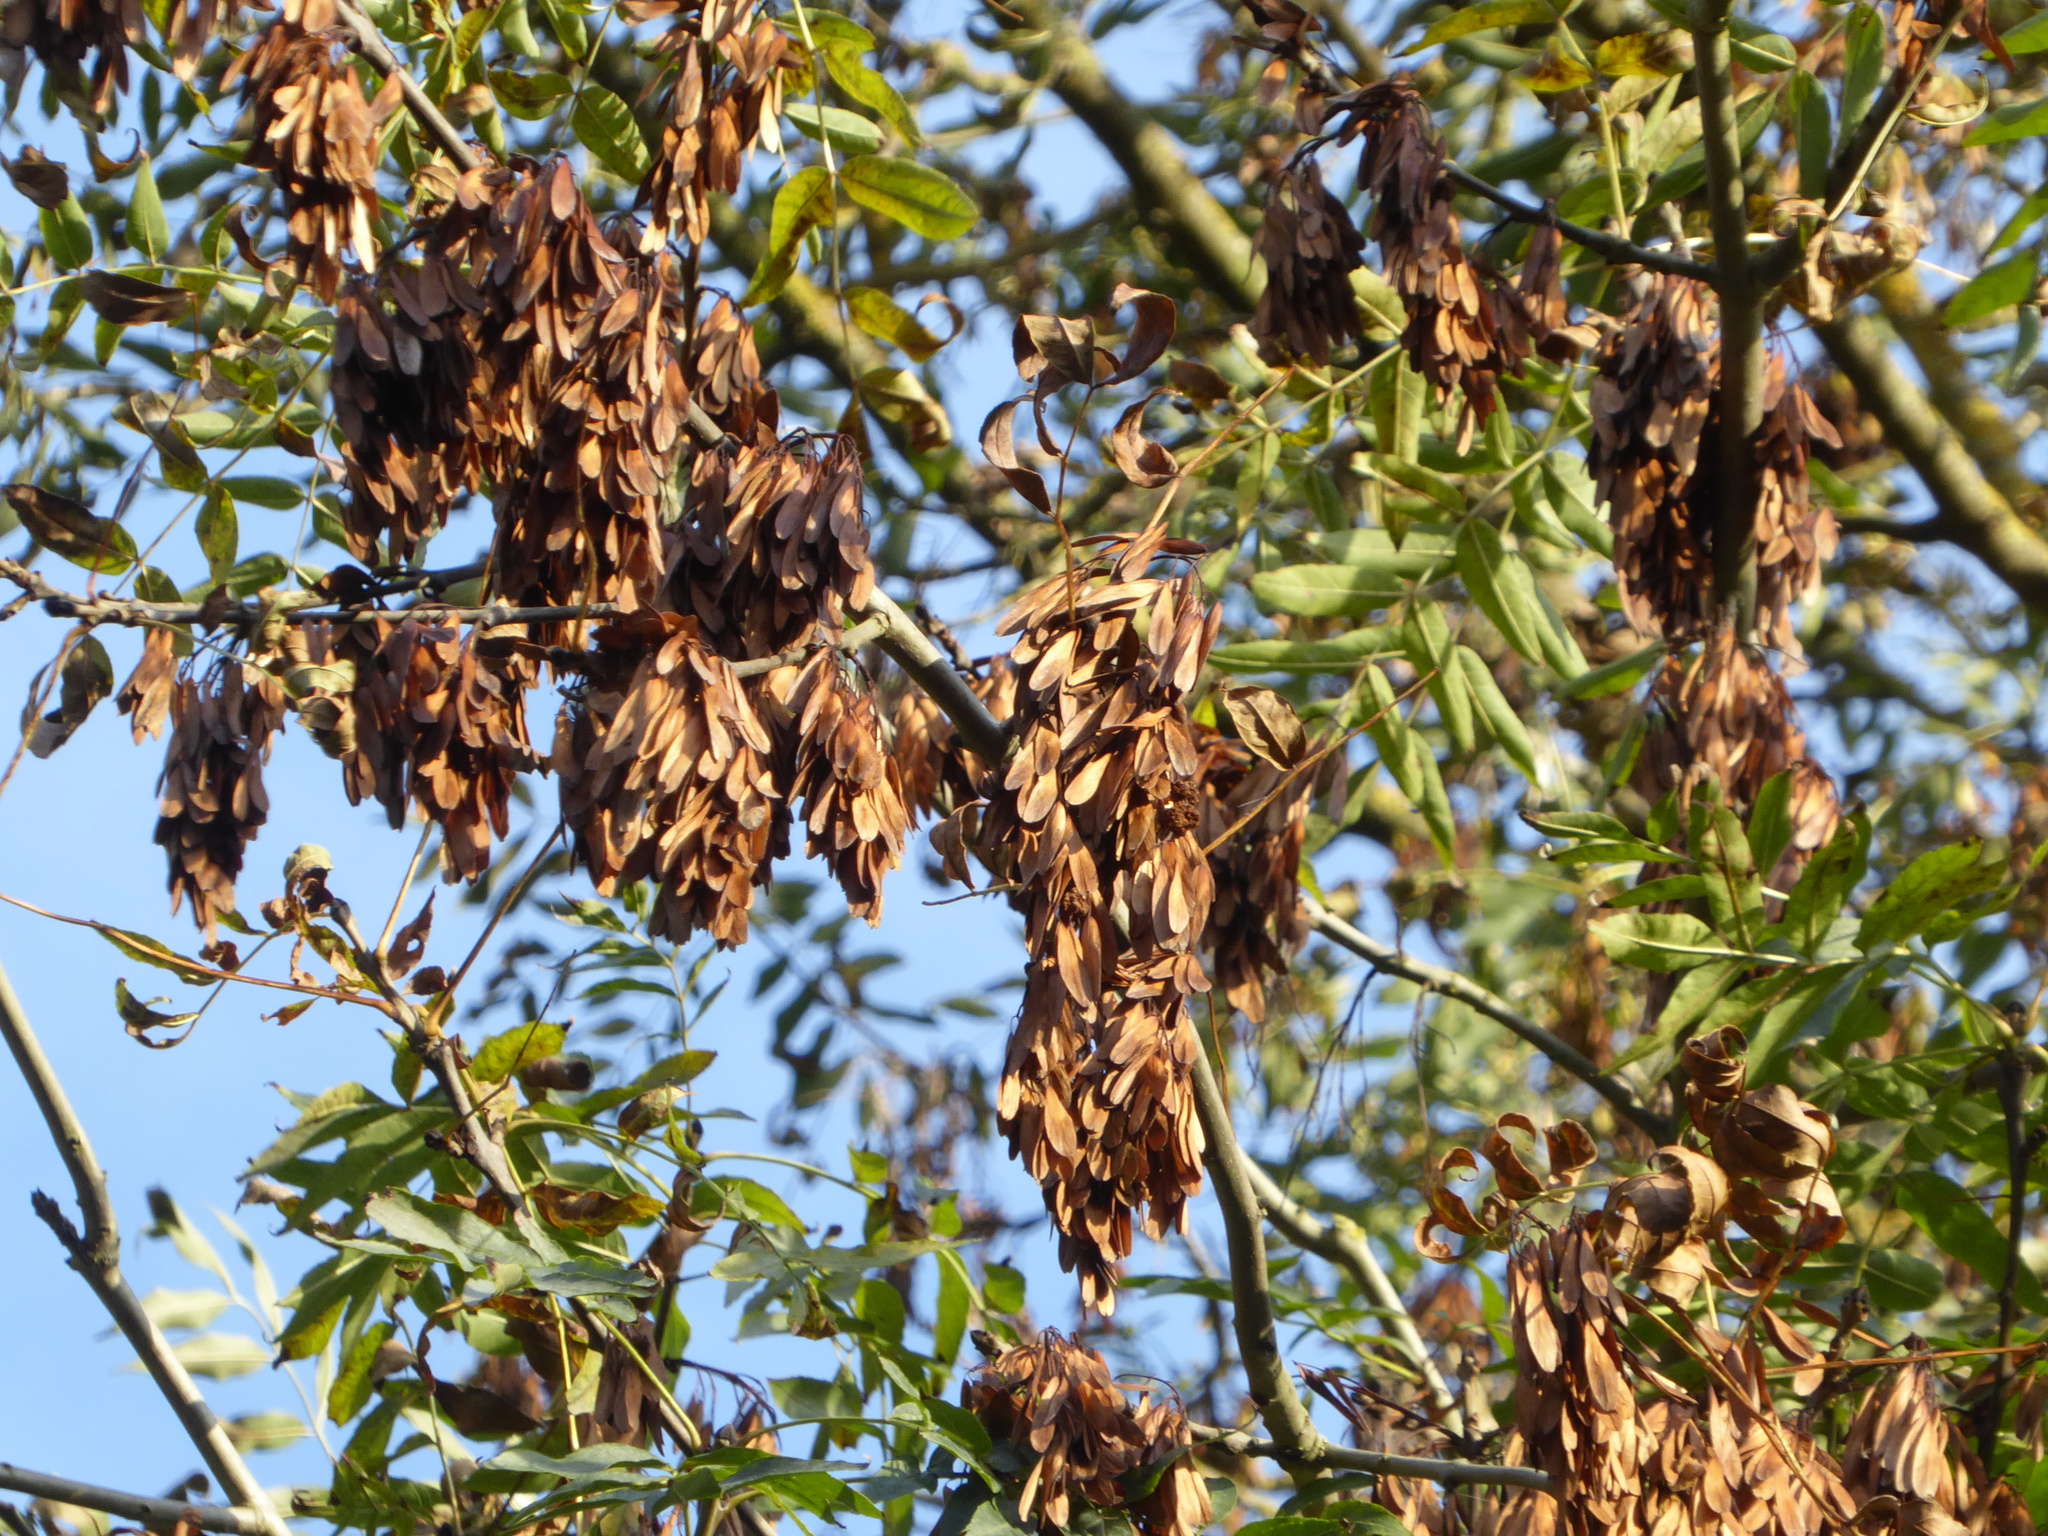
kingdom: Plantae
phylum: Tracheophyta
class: Magnoliopsida
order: Lamiales
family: Oleaceae
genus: Fraxinus
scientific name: Fraxinus excelsior
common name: European ash
